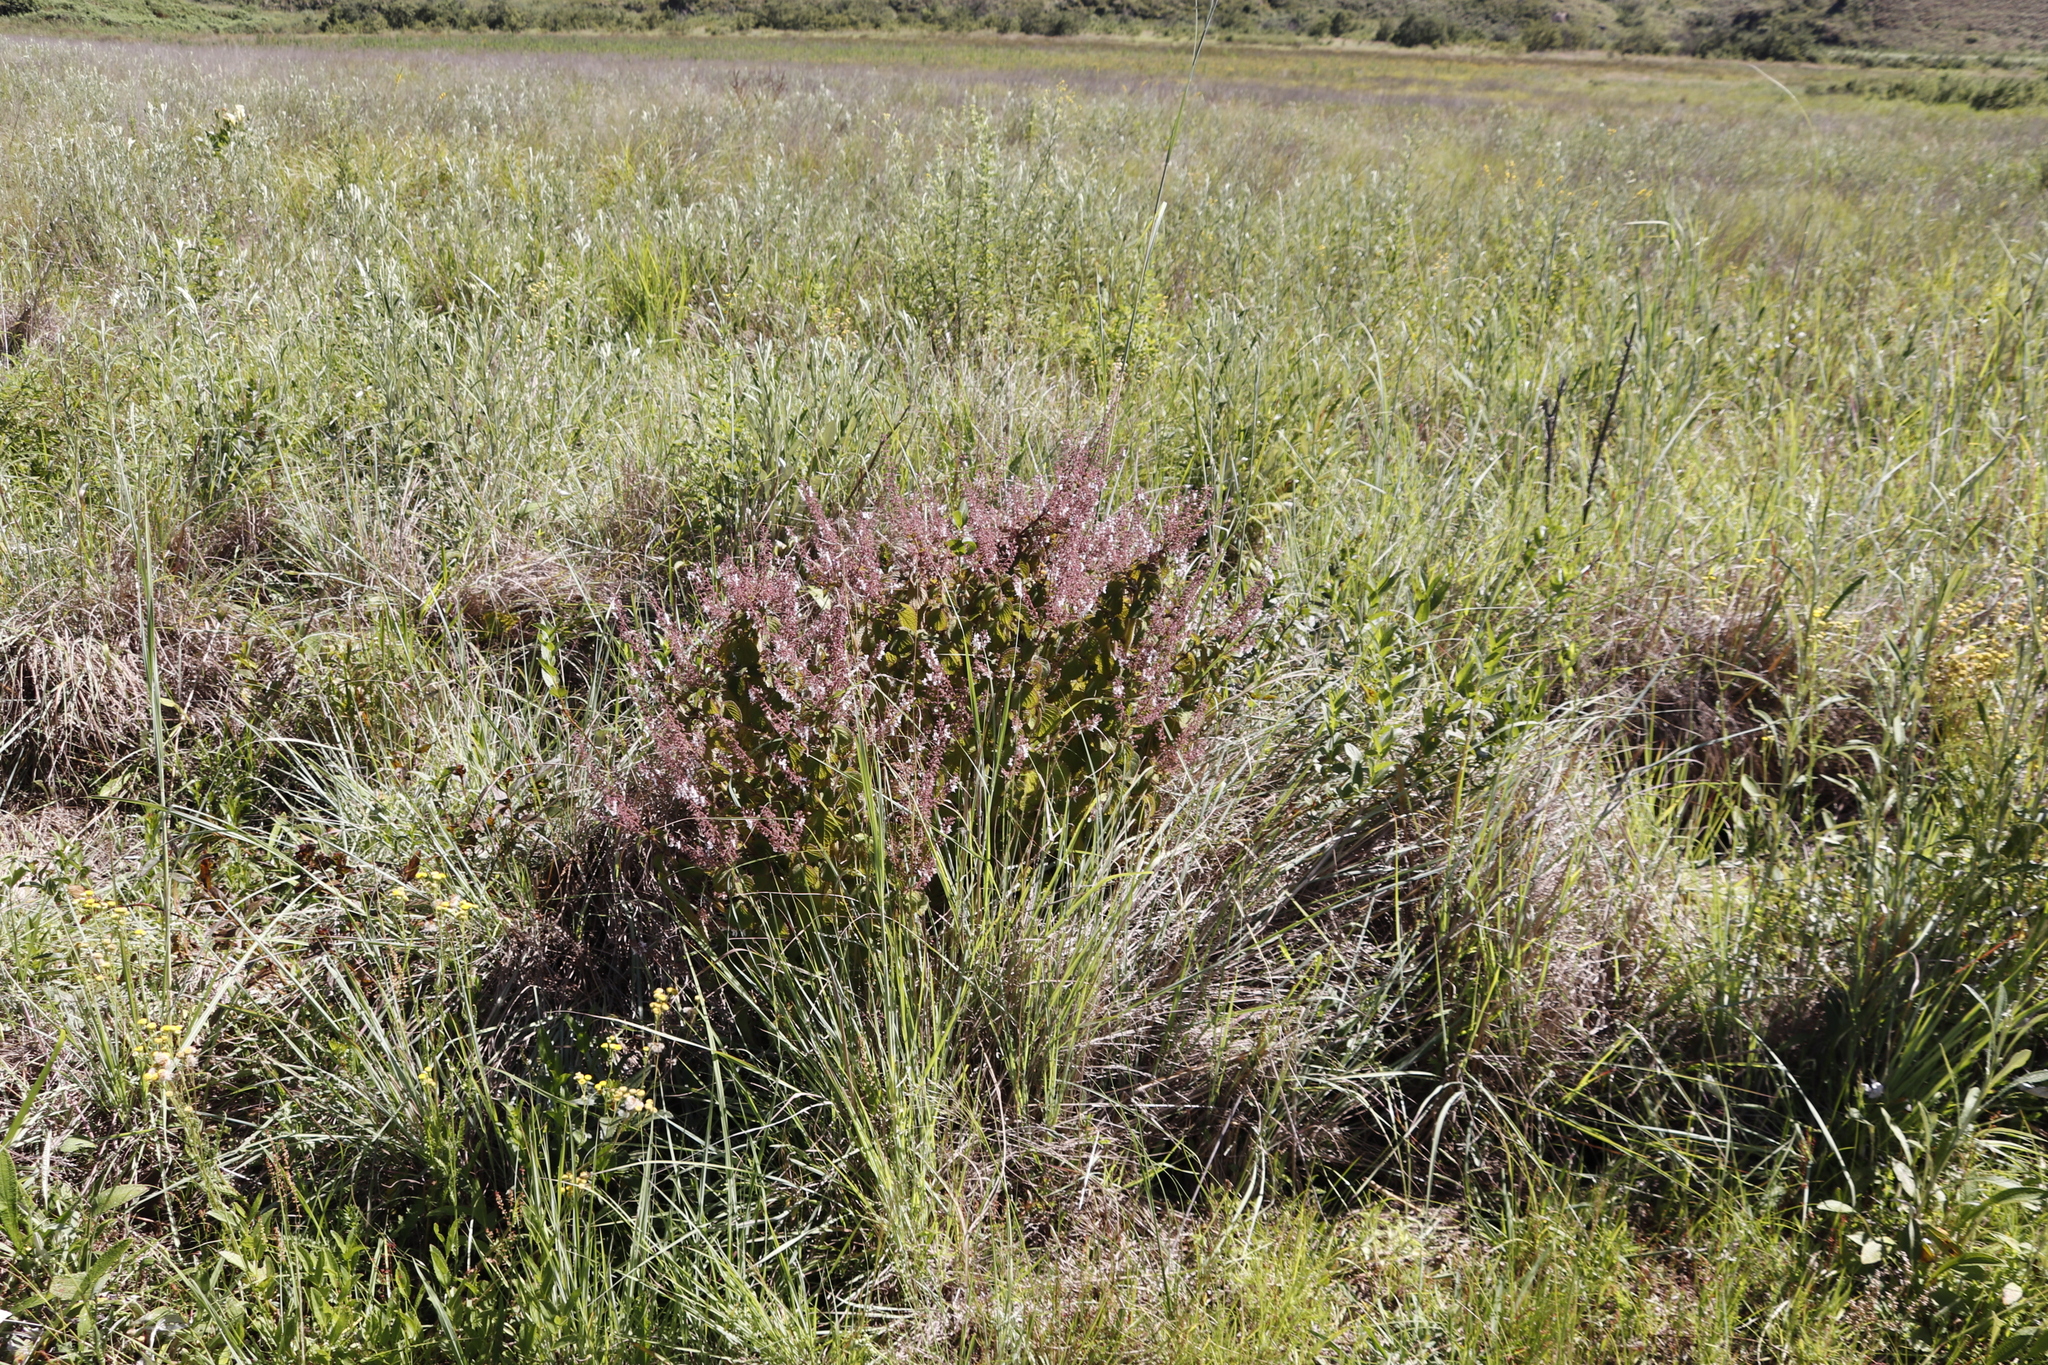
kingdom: Plantae
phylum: Tracheophyta
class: Magnoliopsida
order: Lamiales
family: Lamiaceae
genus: Plectranthus
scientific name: Plectranthus grallatus
